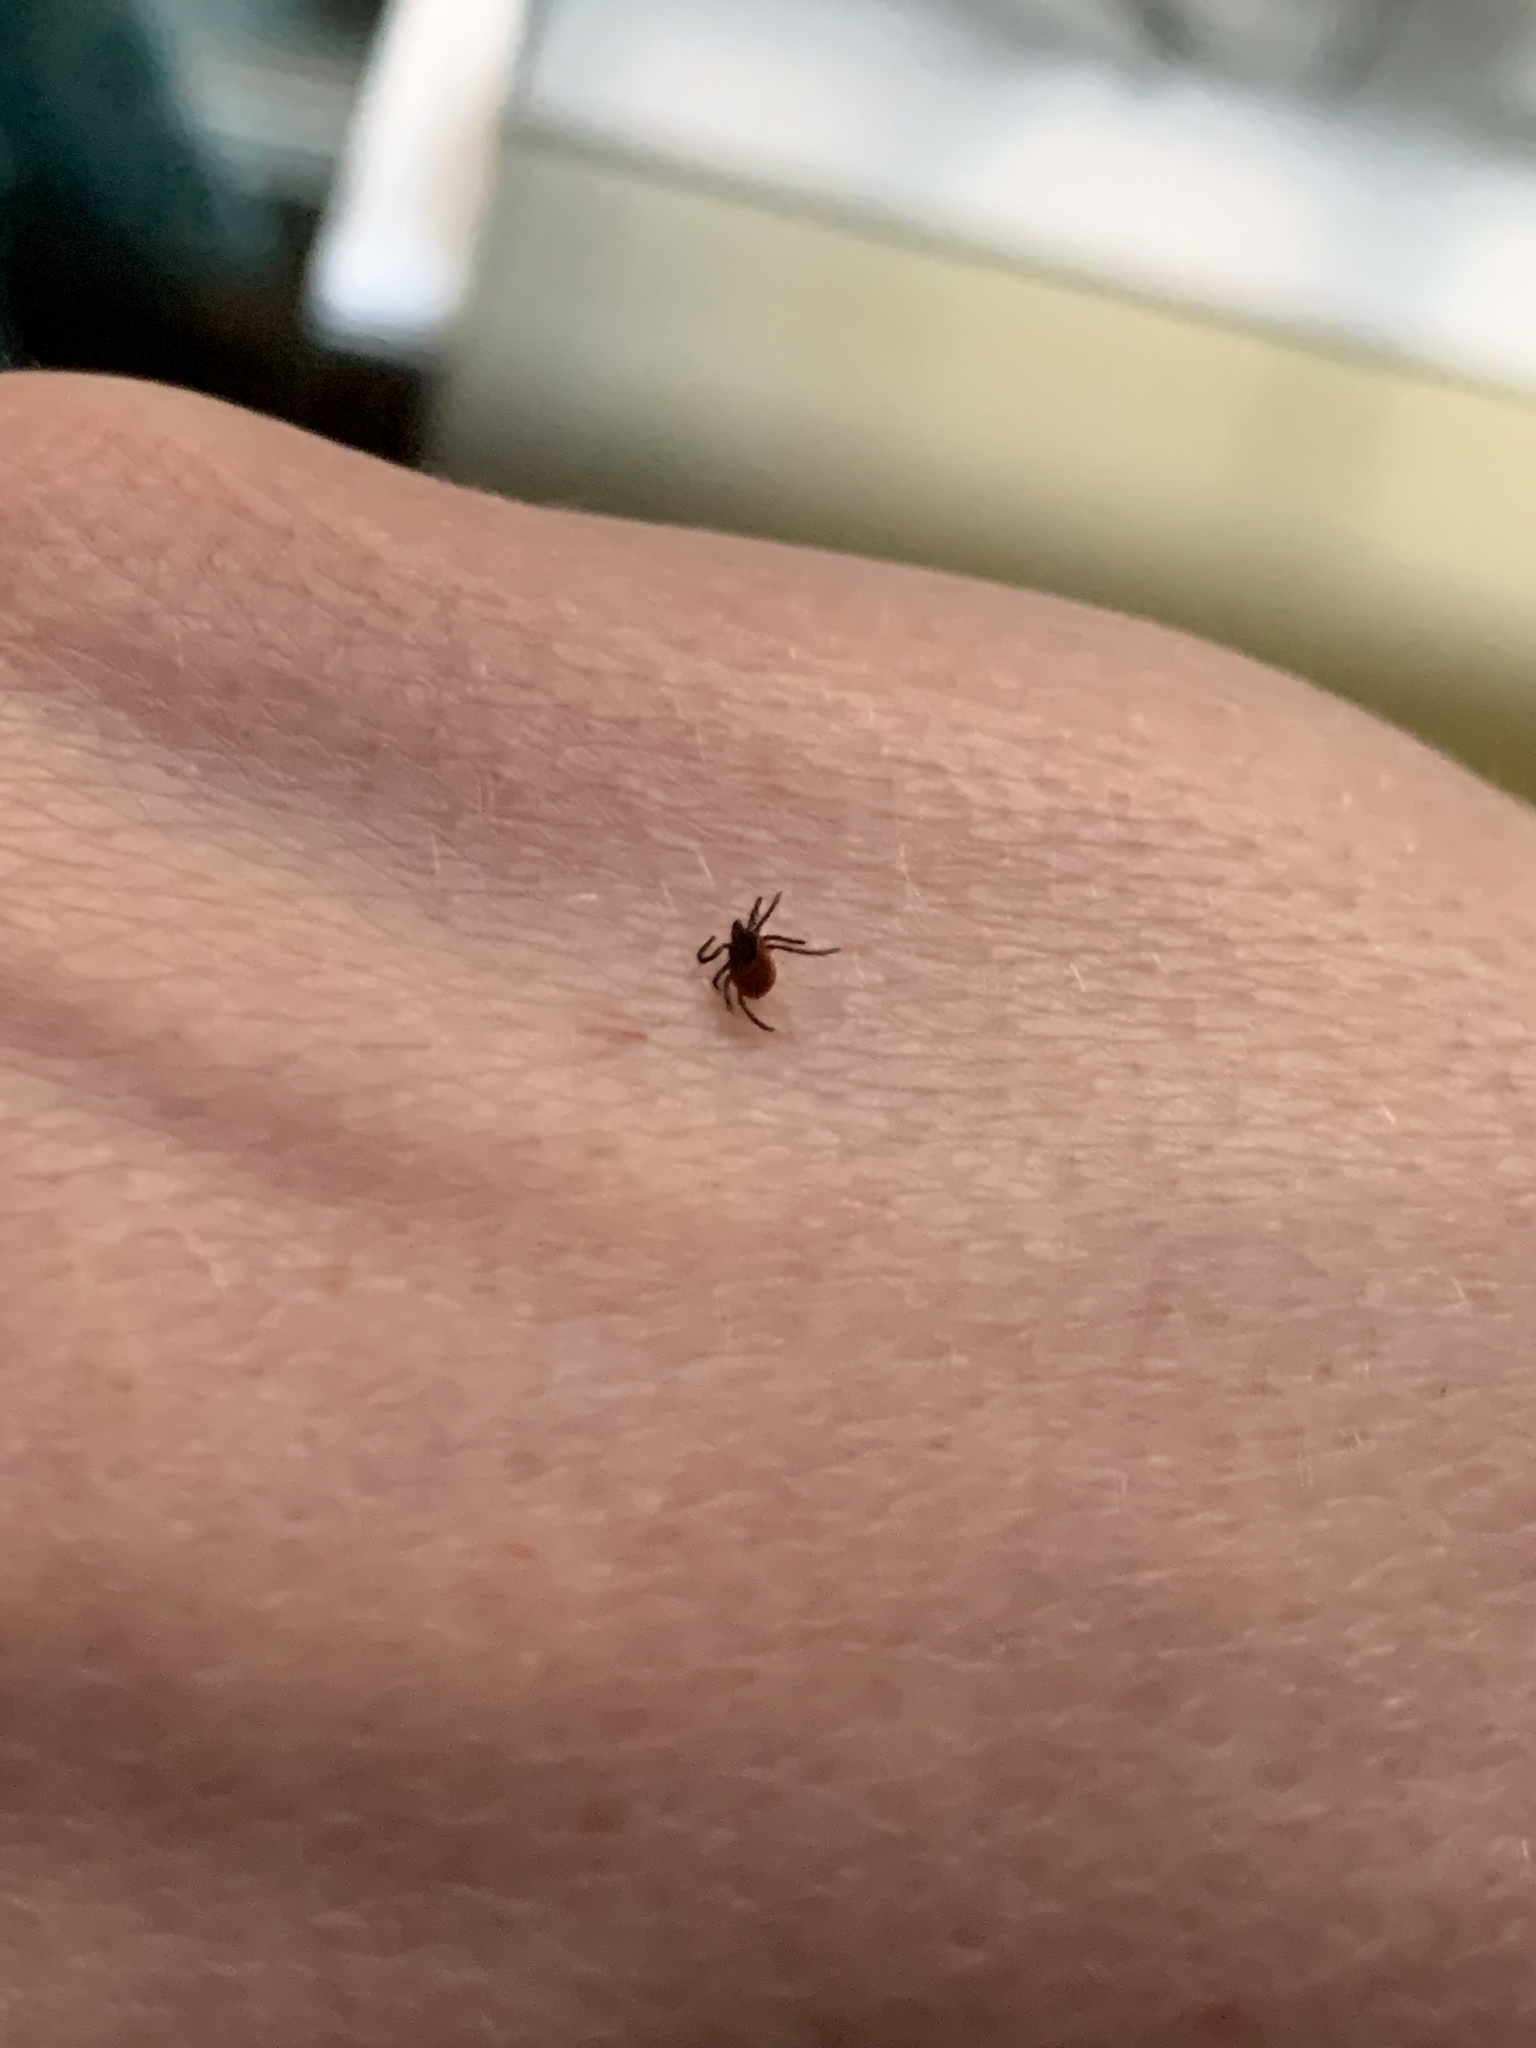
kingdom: Animalia
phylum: Arthropoda
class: Arachnida
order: Ixodida
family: Ixodidae
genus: Ixodes
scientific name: Ixodes scapularis
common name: Black legged tick
